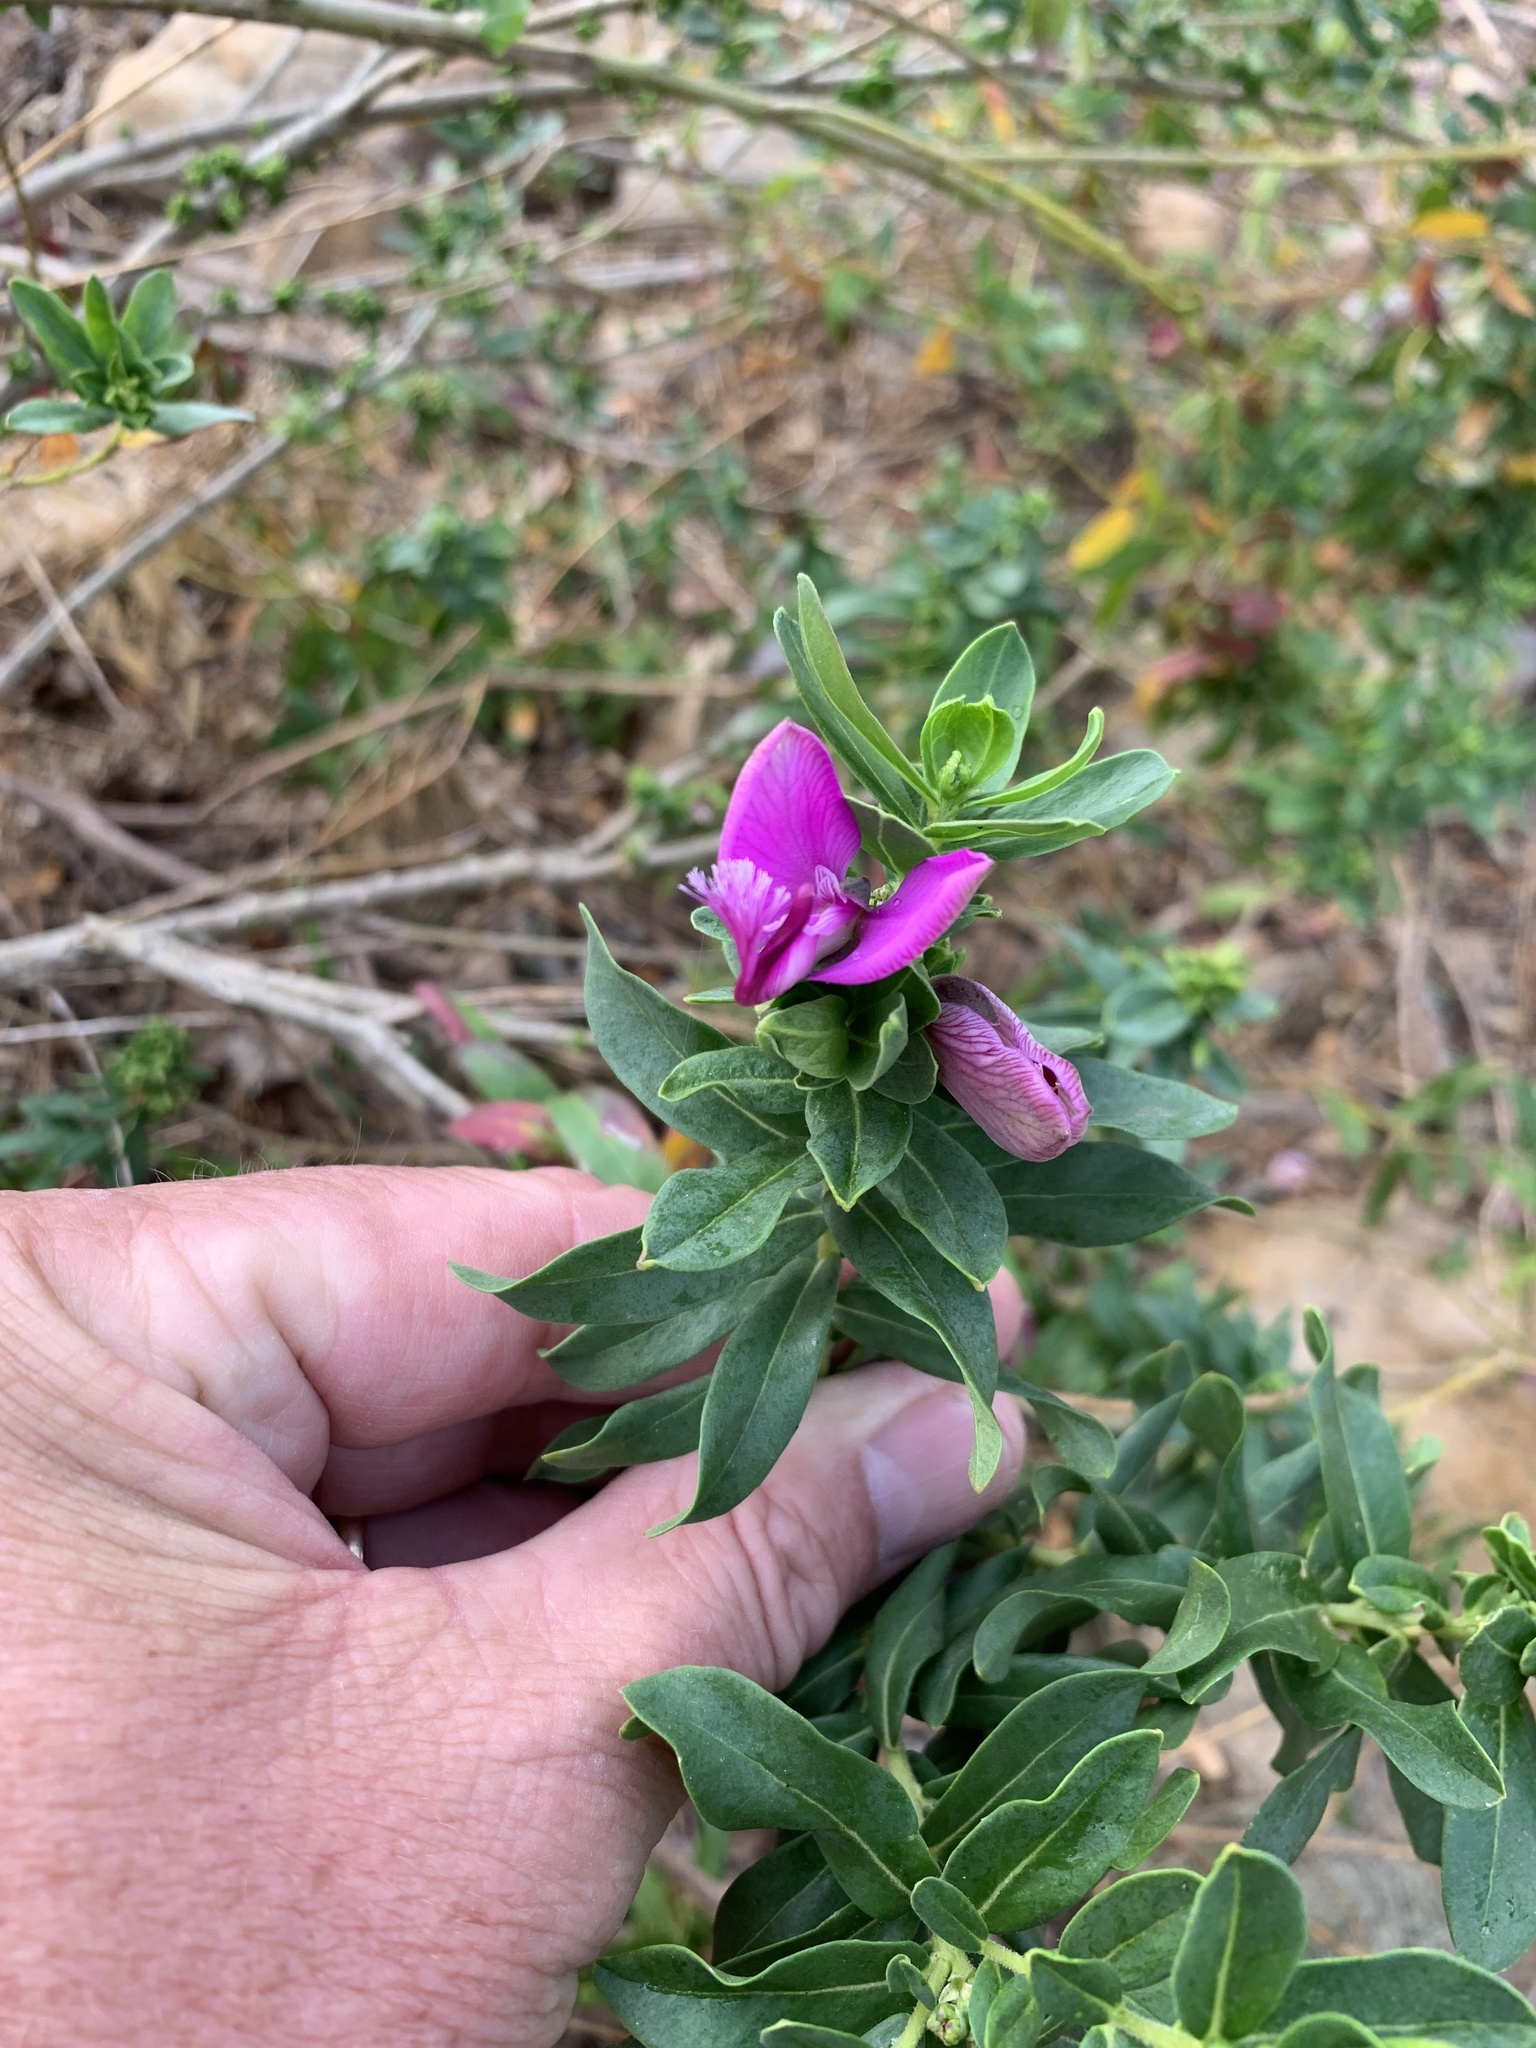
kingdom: Plantae
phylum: Tracheophyta
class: Magnoliopsida
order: Fabales
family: Polygalaceae
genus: Polygala
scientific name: Polygala myrtifolia
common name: Myrtle-leaf milkwort
